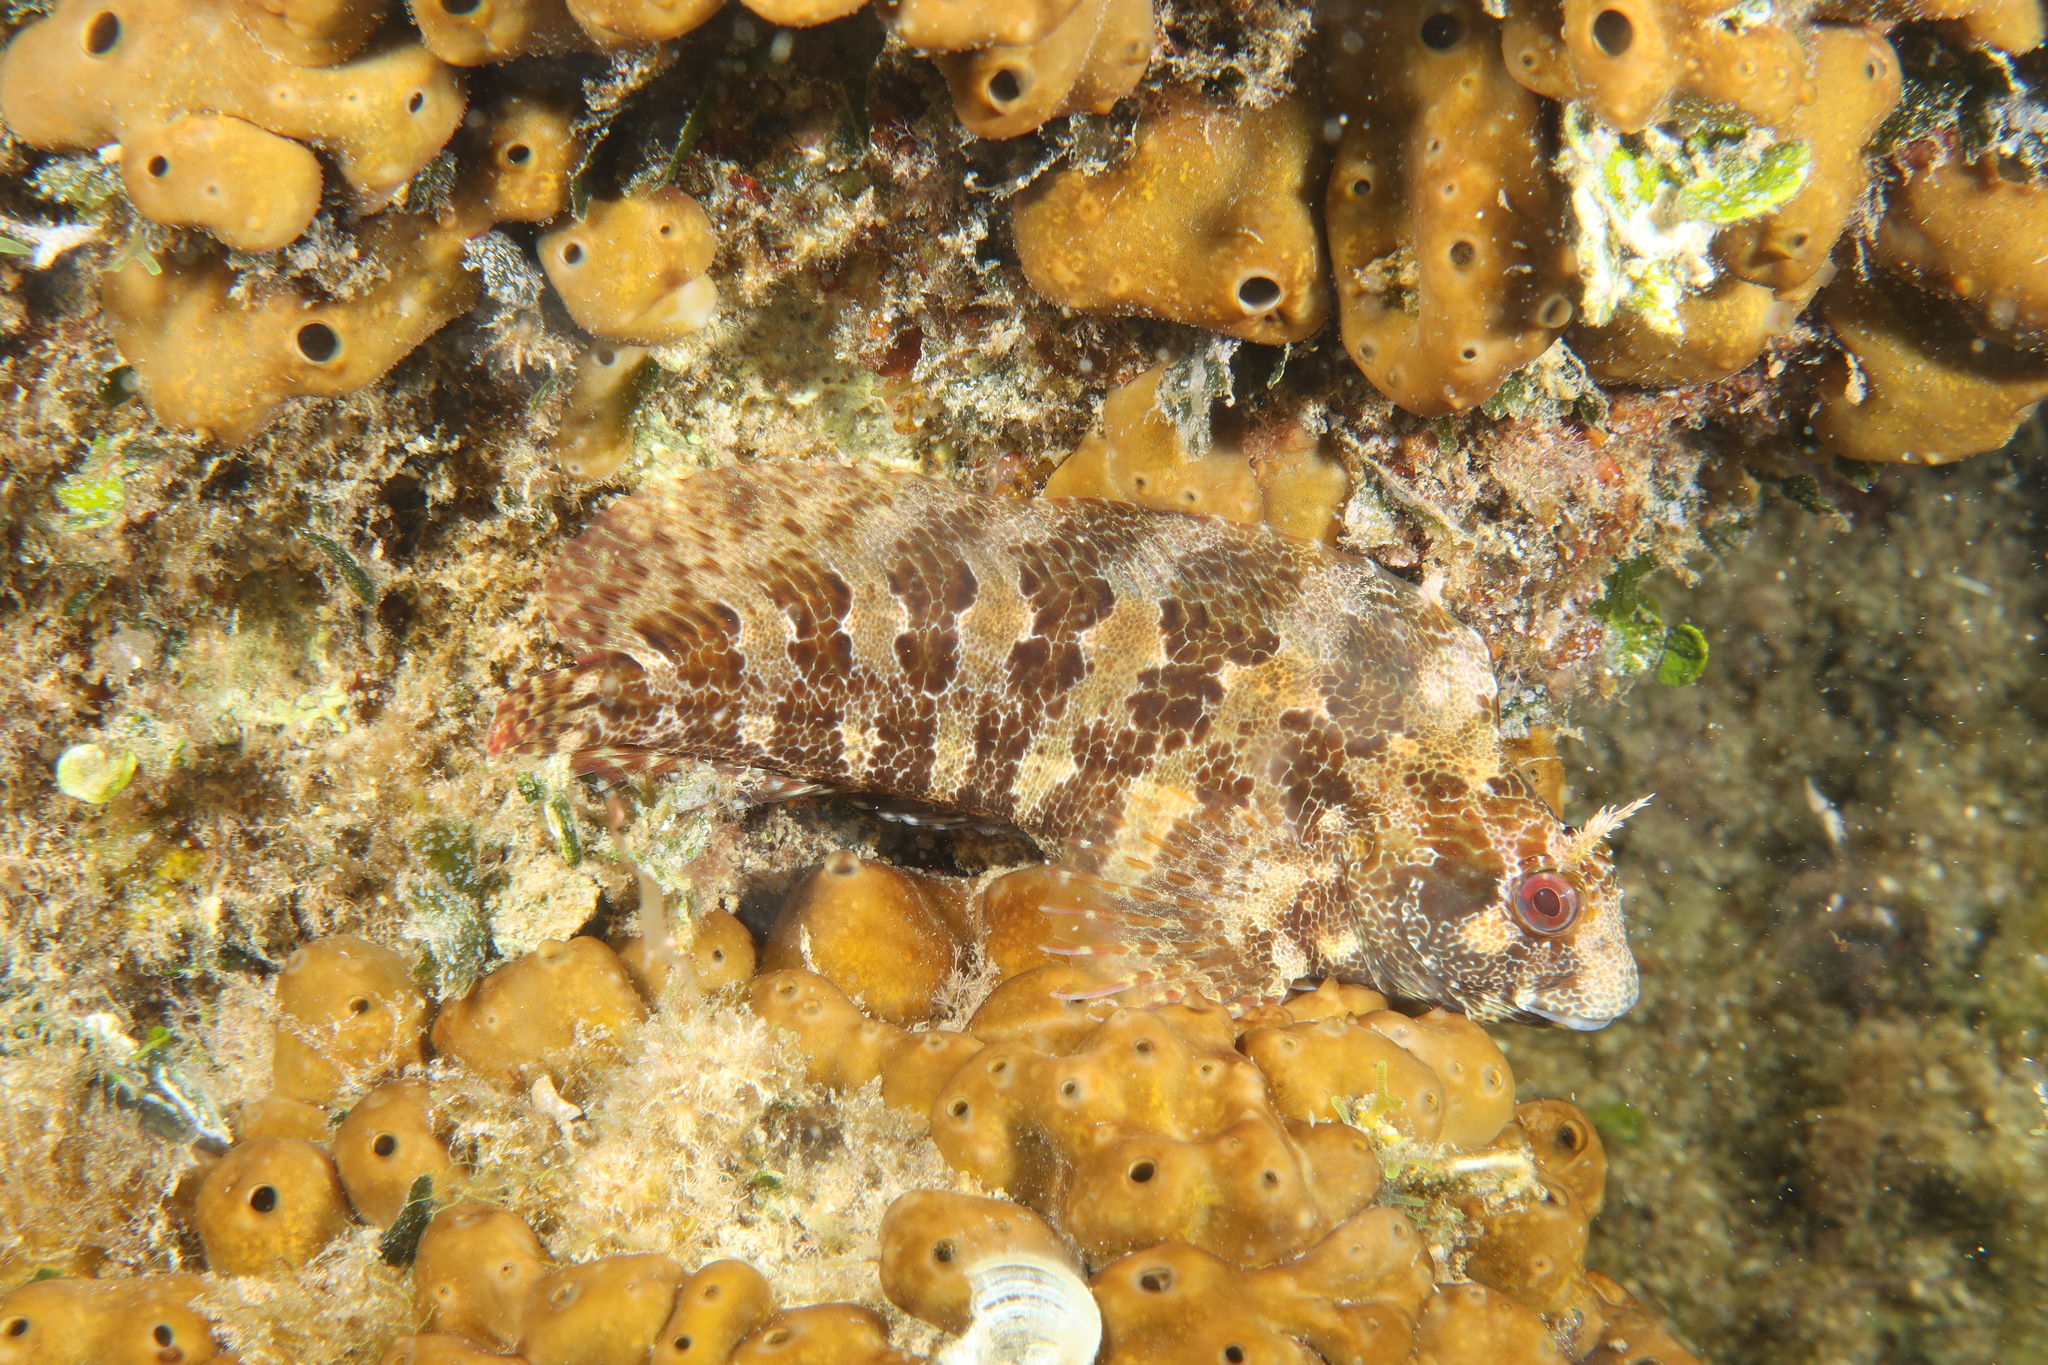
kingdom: Animalia
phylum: Chordata
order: Perciformes
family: Blenniidae
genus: Parablennius
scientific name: Parablennius gattorugine
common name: Tompot blenny
